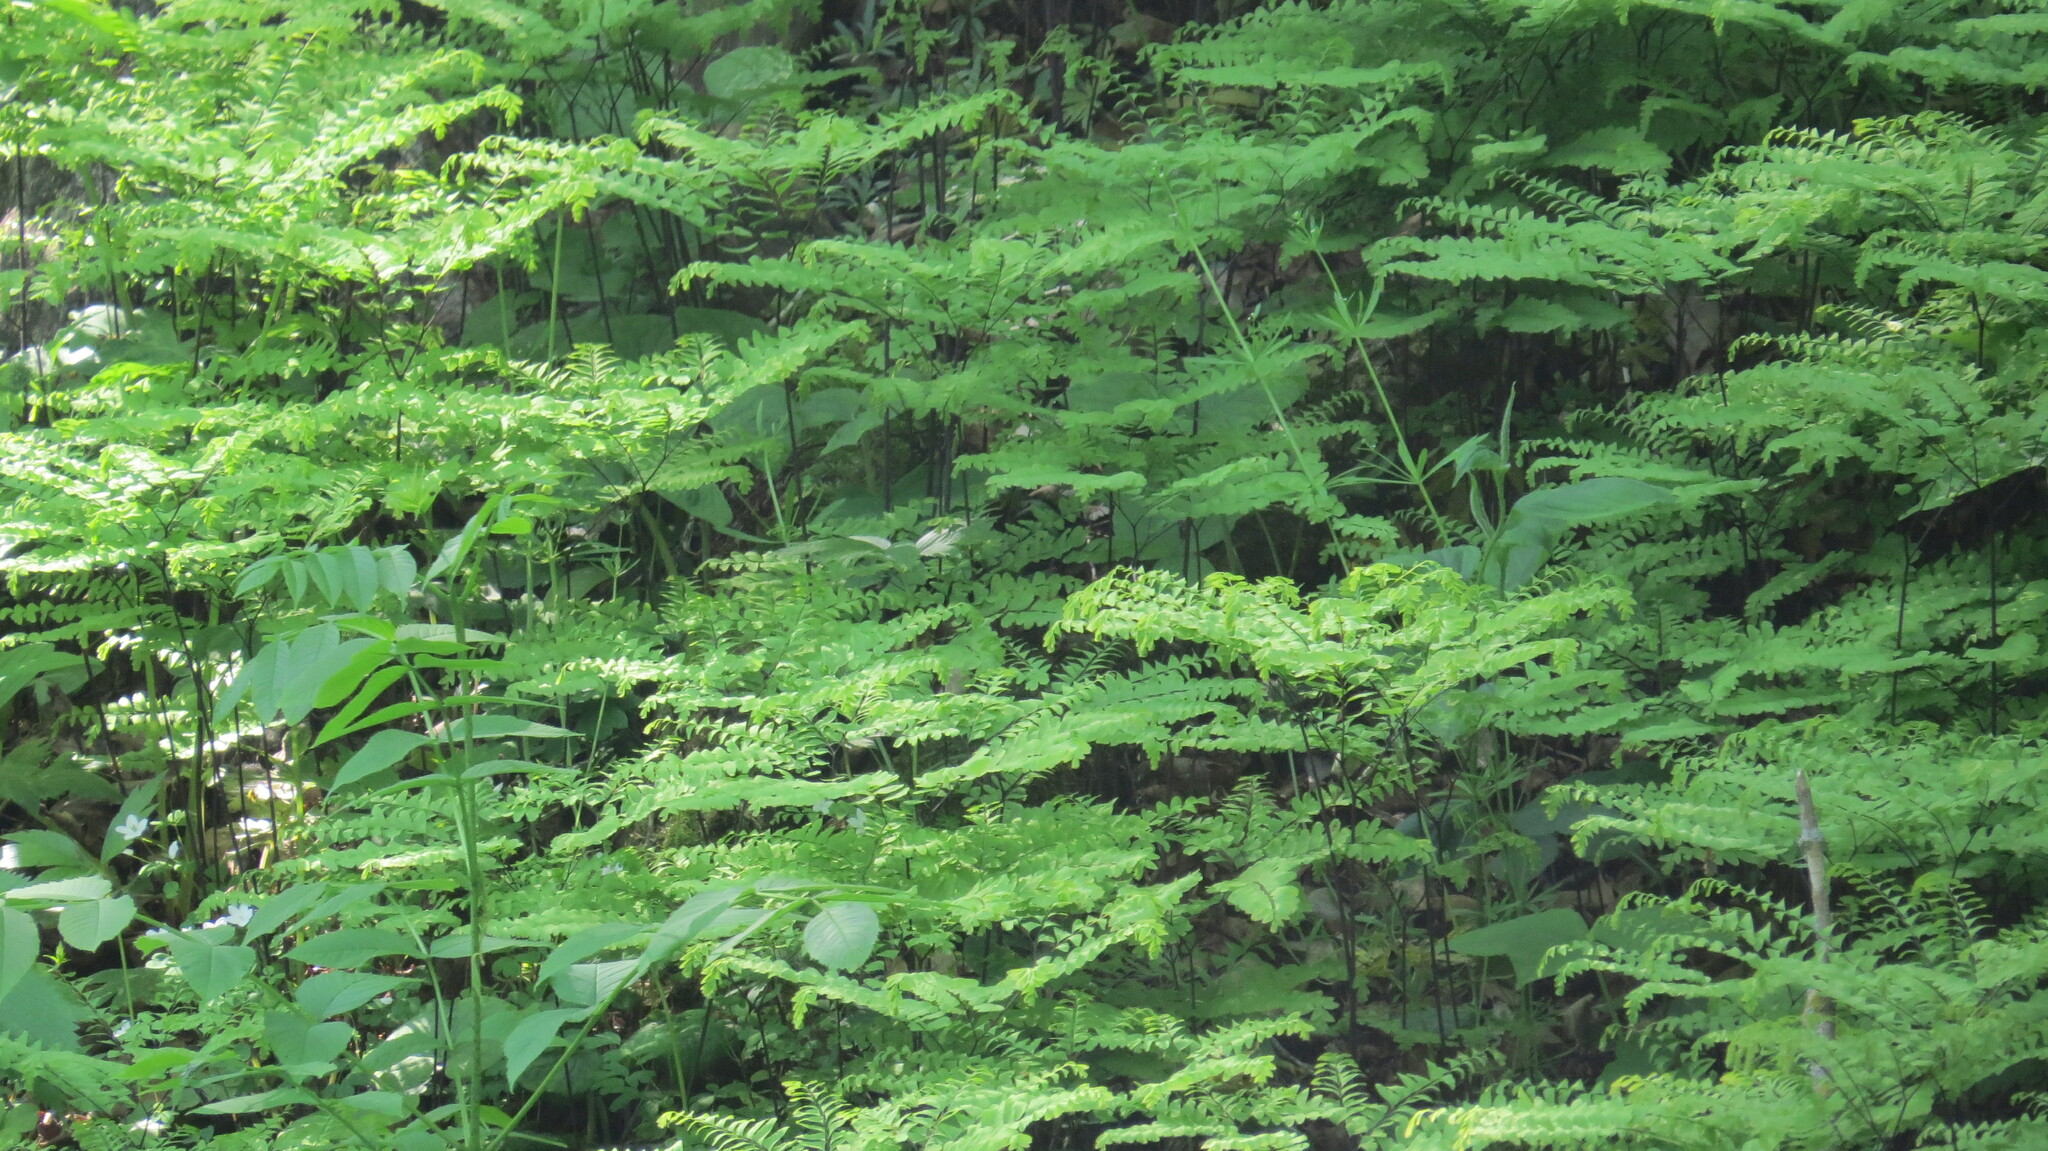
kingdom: Plantae
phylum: Tracheophyta
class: Polypodiopsida
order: Polypodiales
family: Pteridaceae
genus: Adiantum
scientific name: Adiantum pedatum
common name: Five-finger fern
